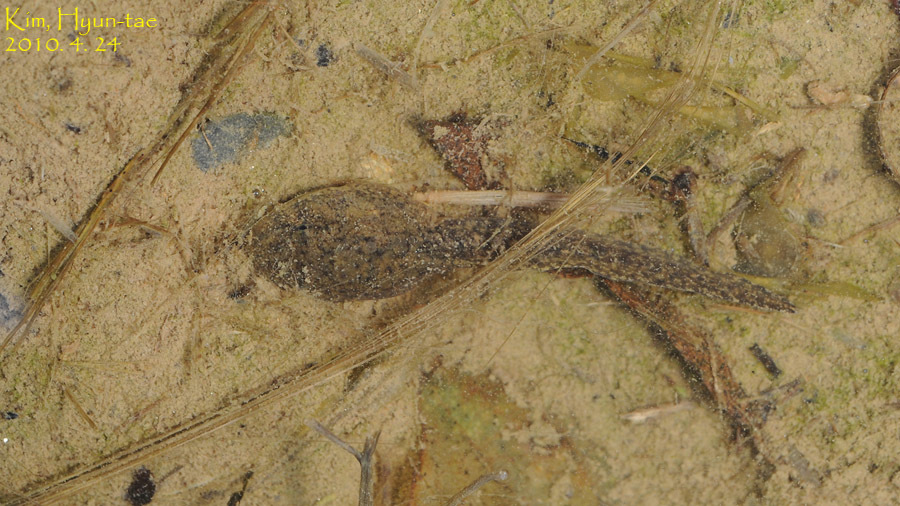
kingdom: Animalia
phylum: Chordata
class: Amphibia
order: Anura
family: Ranidae
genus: Glandirana
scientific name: Glandirana emeljanovi
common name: Northeast china rough-skinned frog
